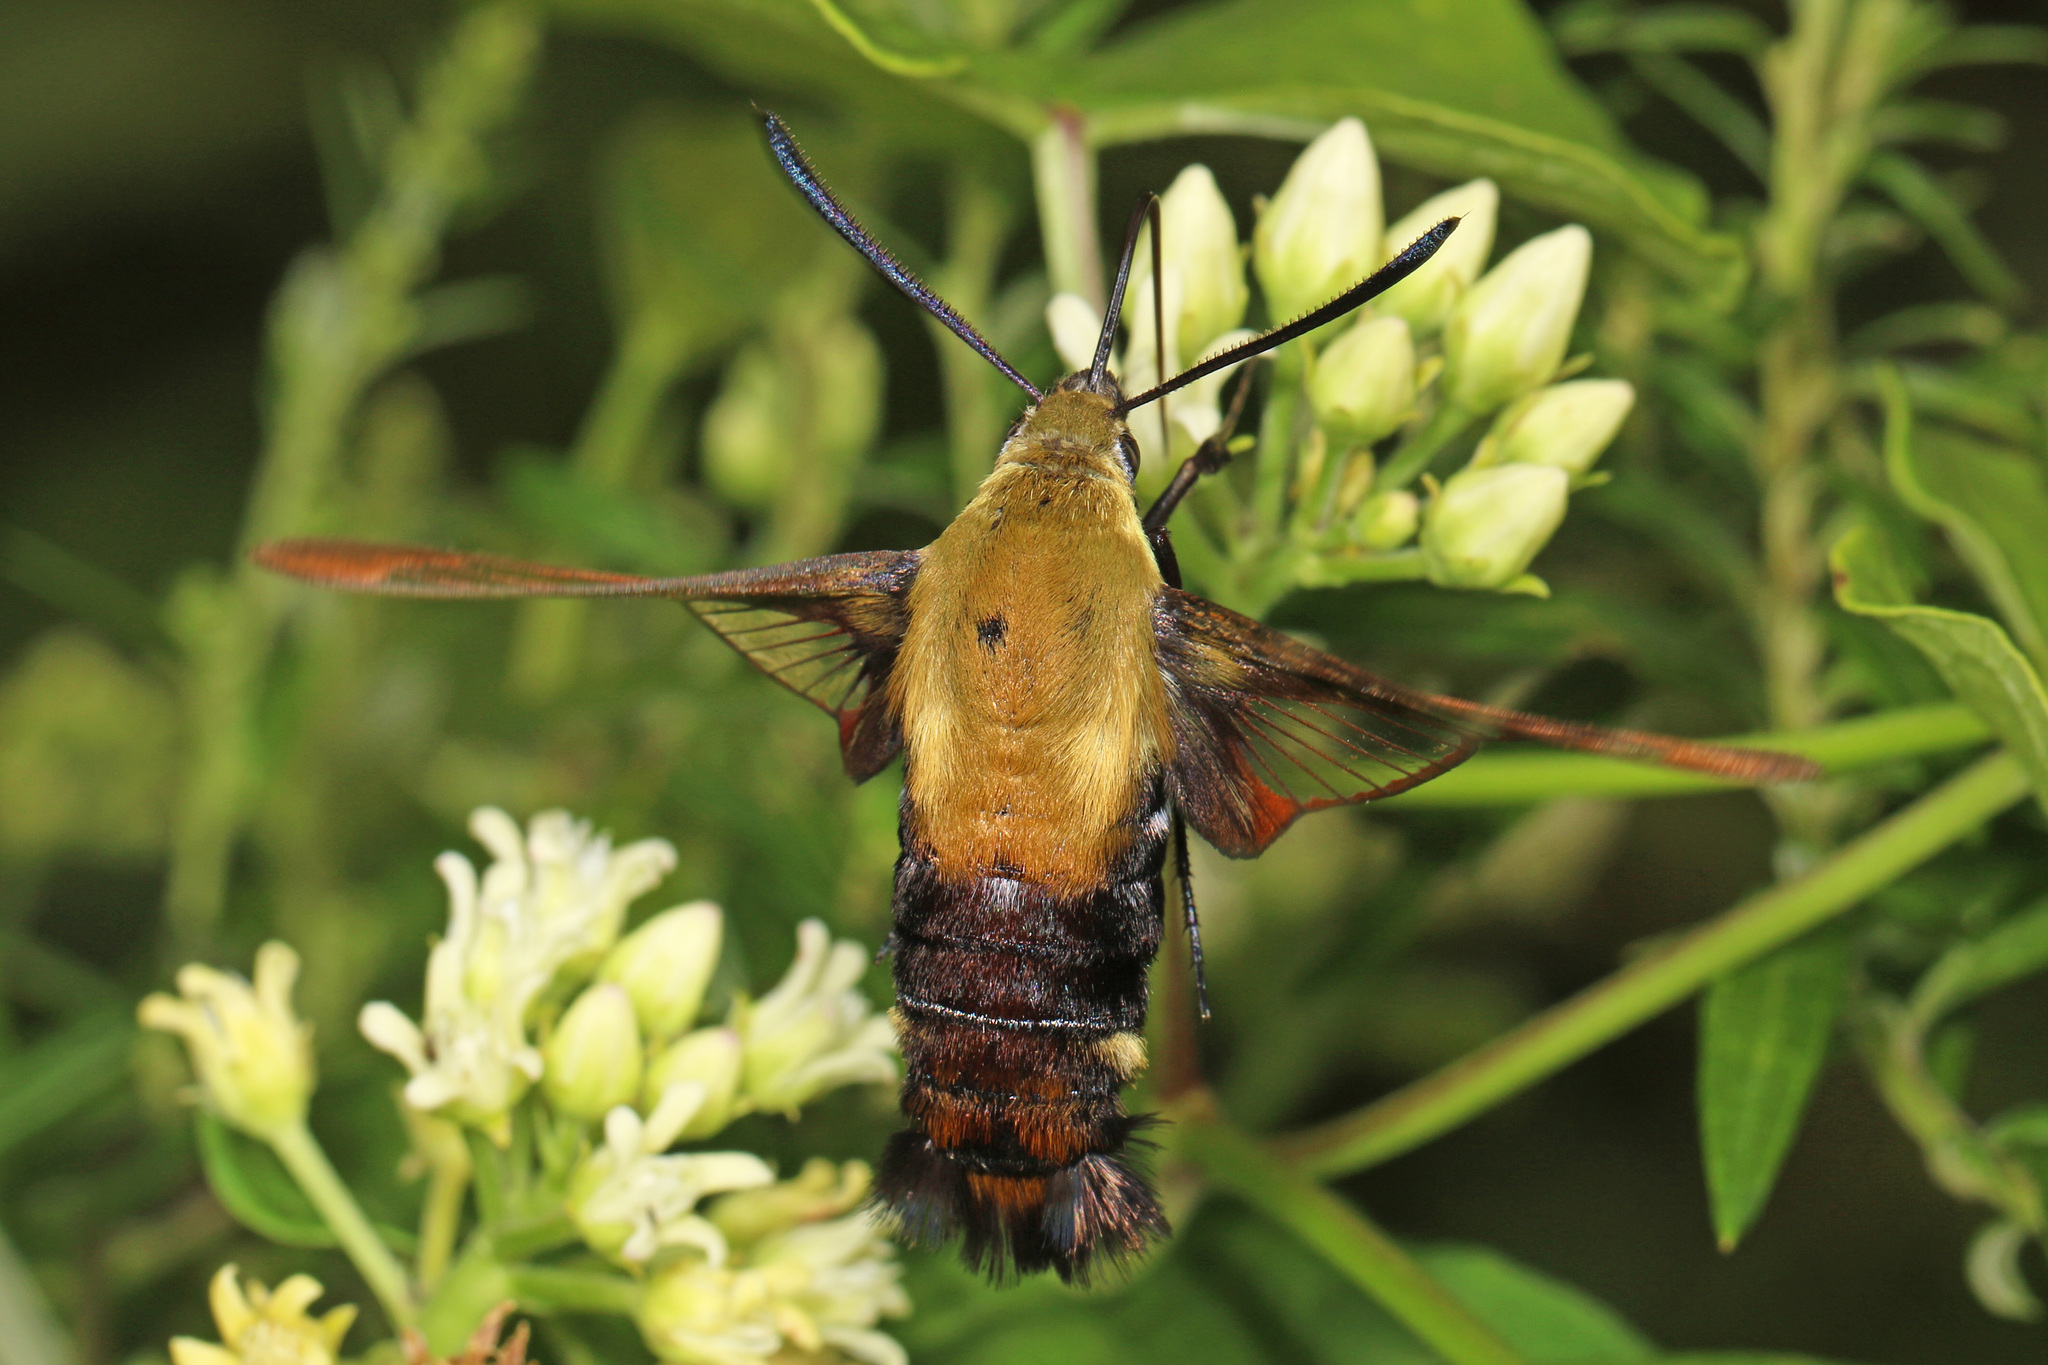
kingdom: Animalia
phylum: Arthropoda
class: Insecta
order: Lepidoptera
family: Sphingidae
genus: Hemaris
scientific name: Hemaris diffinis
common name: Bumblebee moth
